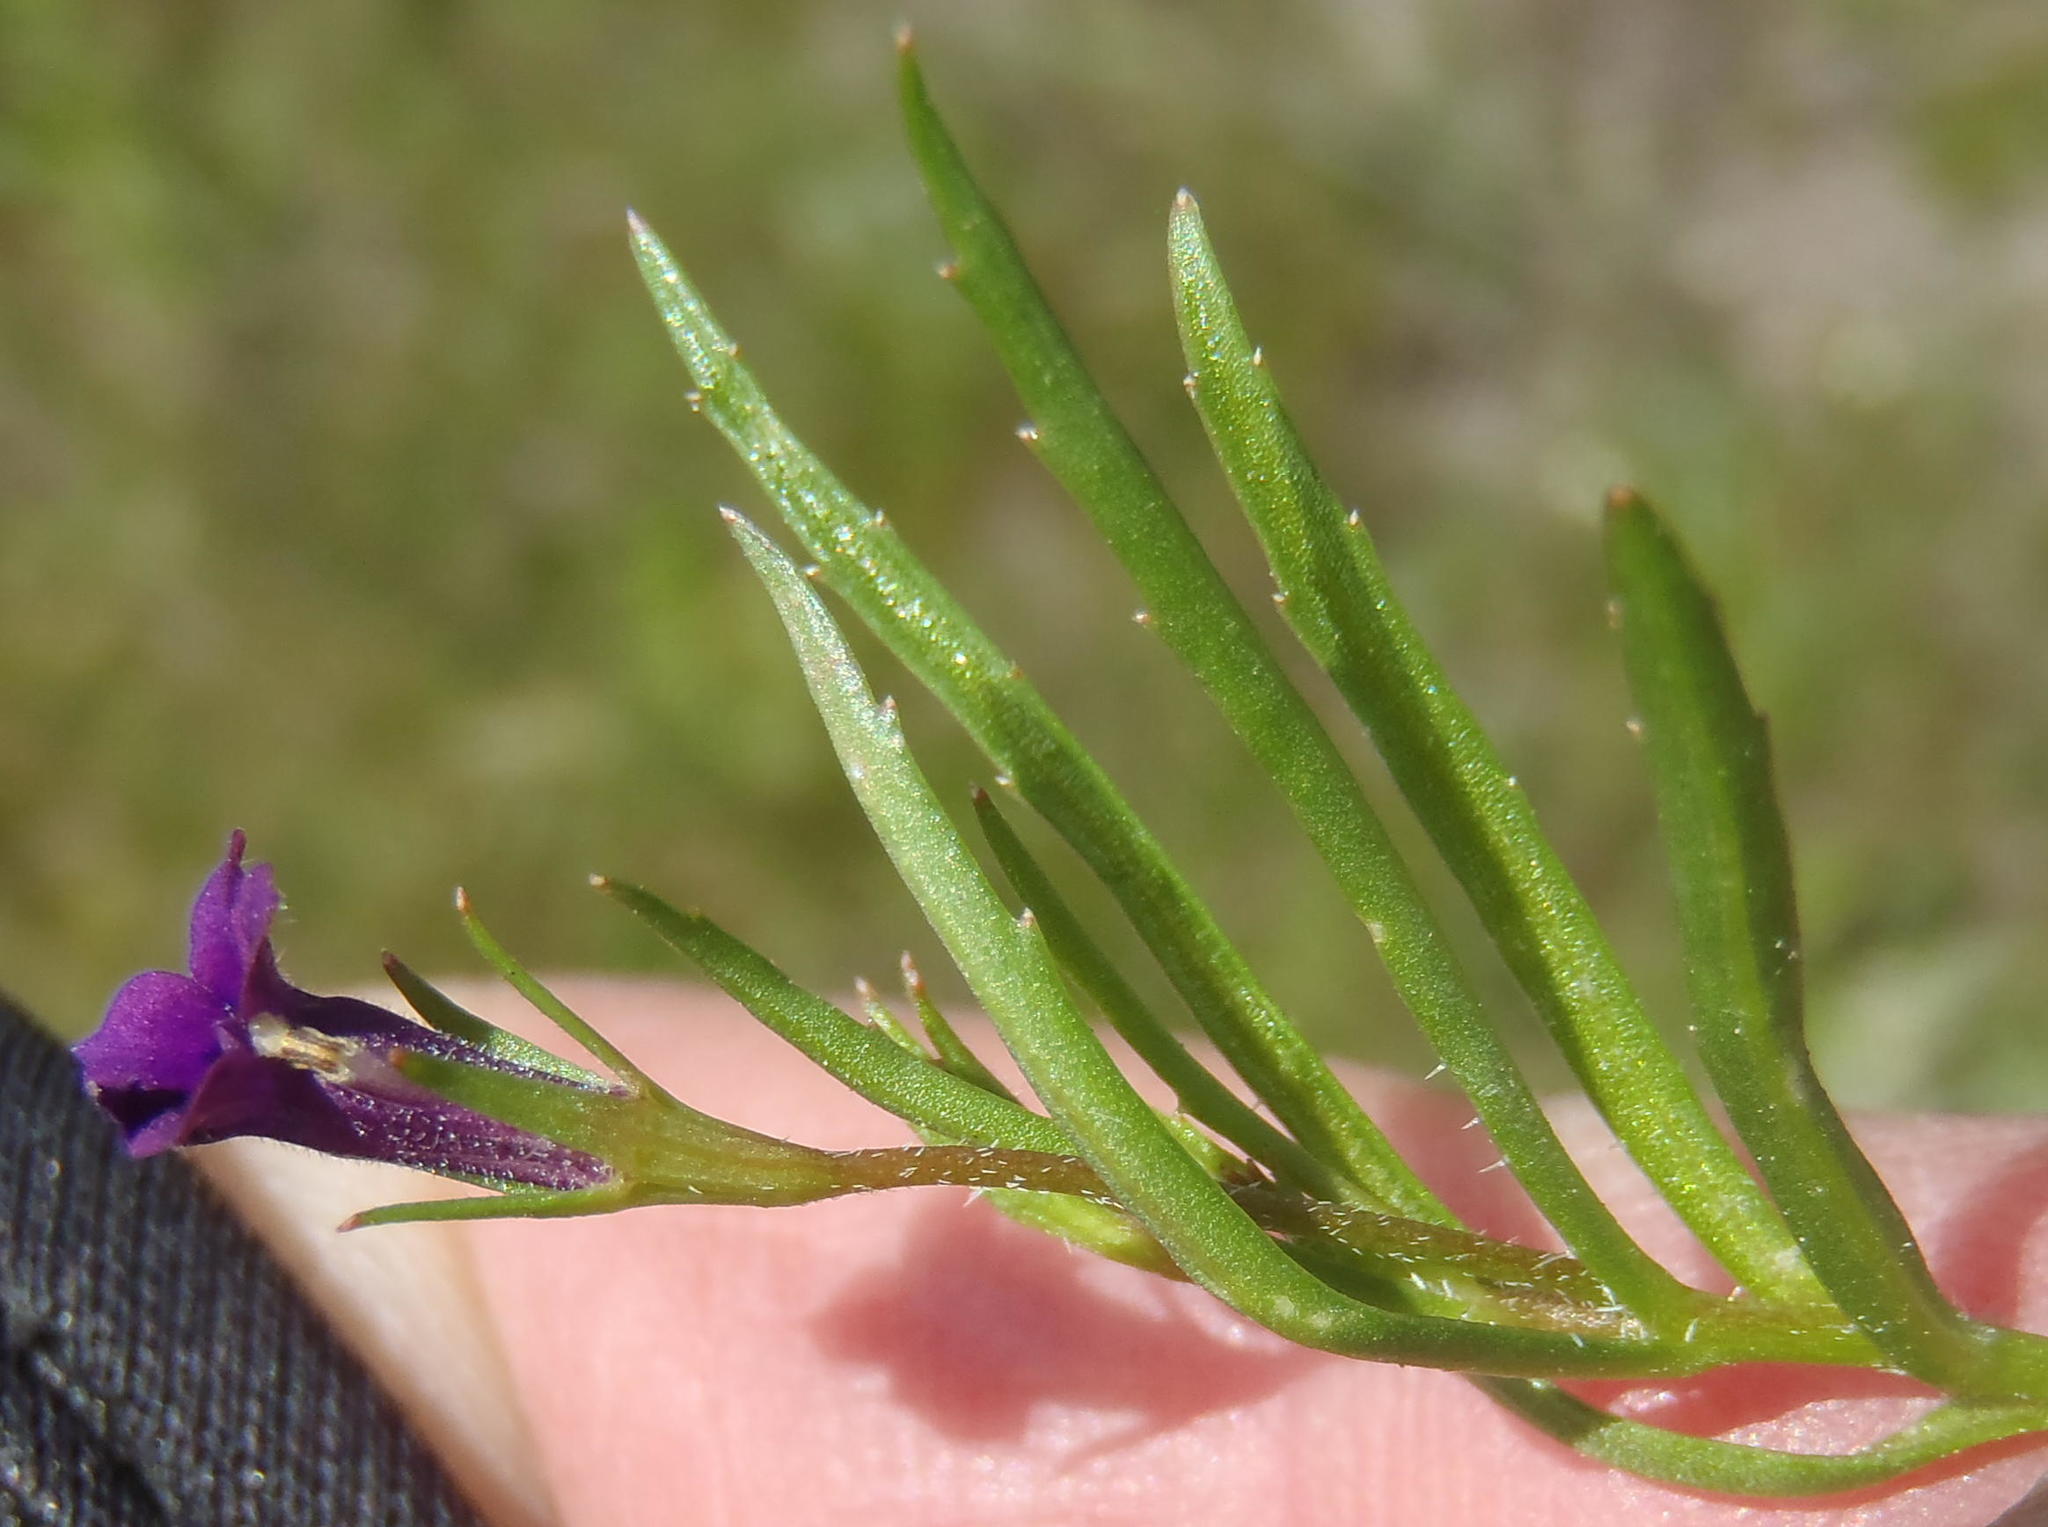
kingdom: Plantae
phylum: Tracheophyta
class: Magnoliopsida
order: Asterales
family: Campanulaceae
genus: Monopsis
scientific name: Monopsis simplex
